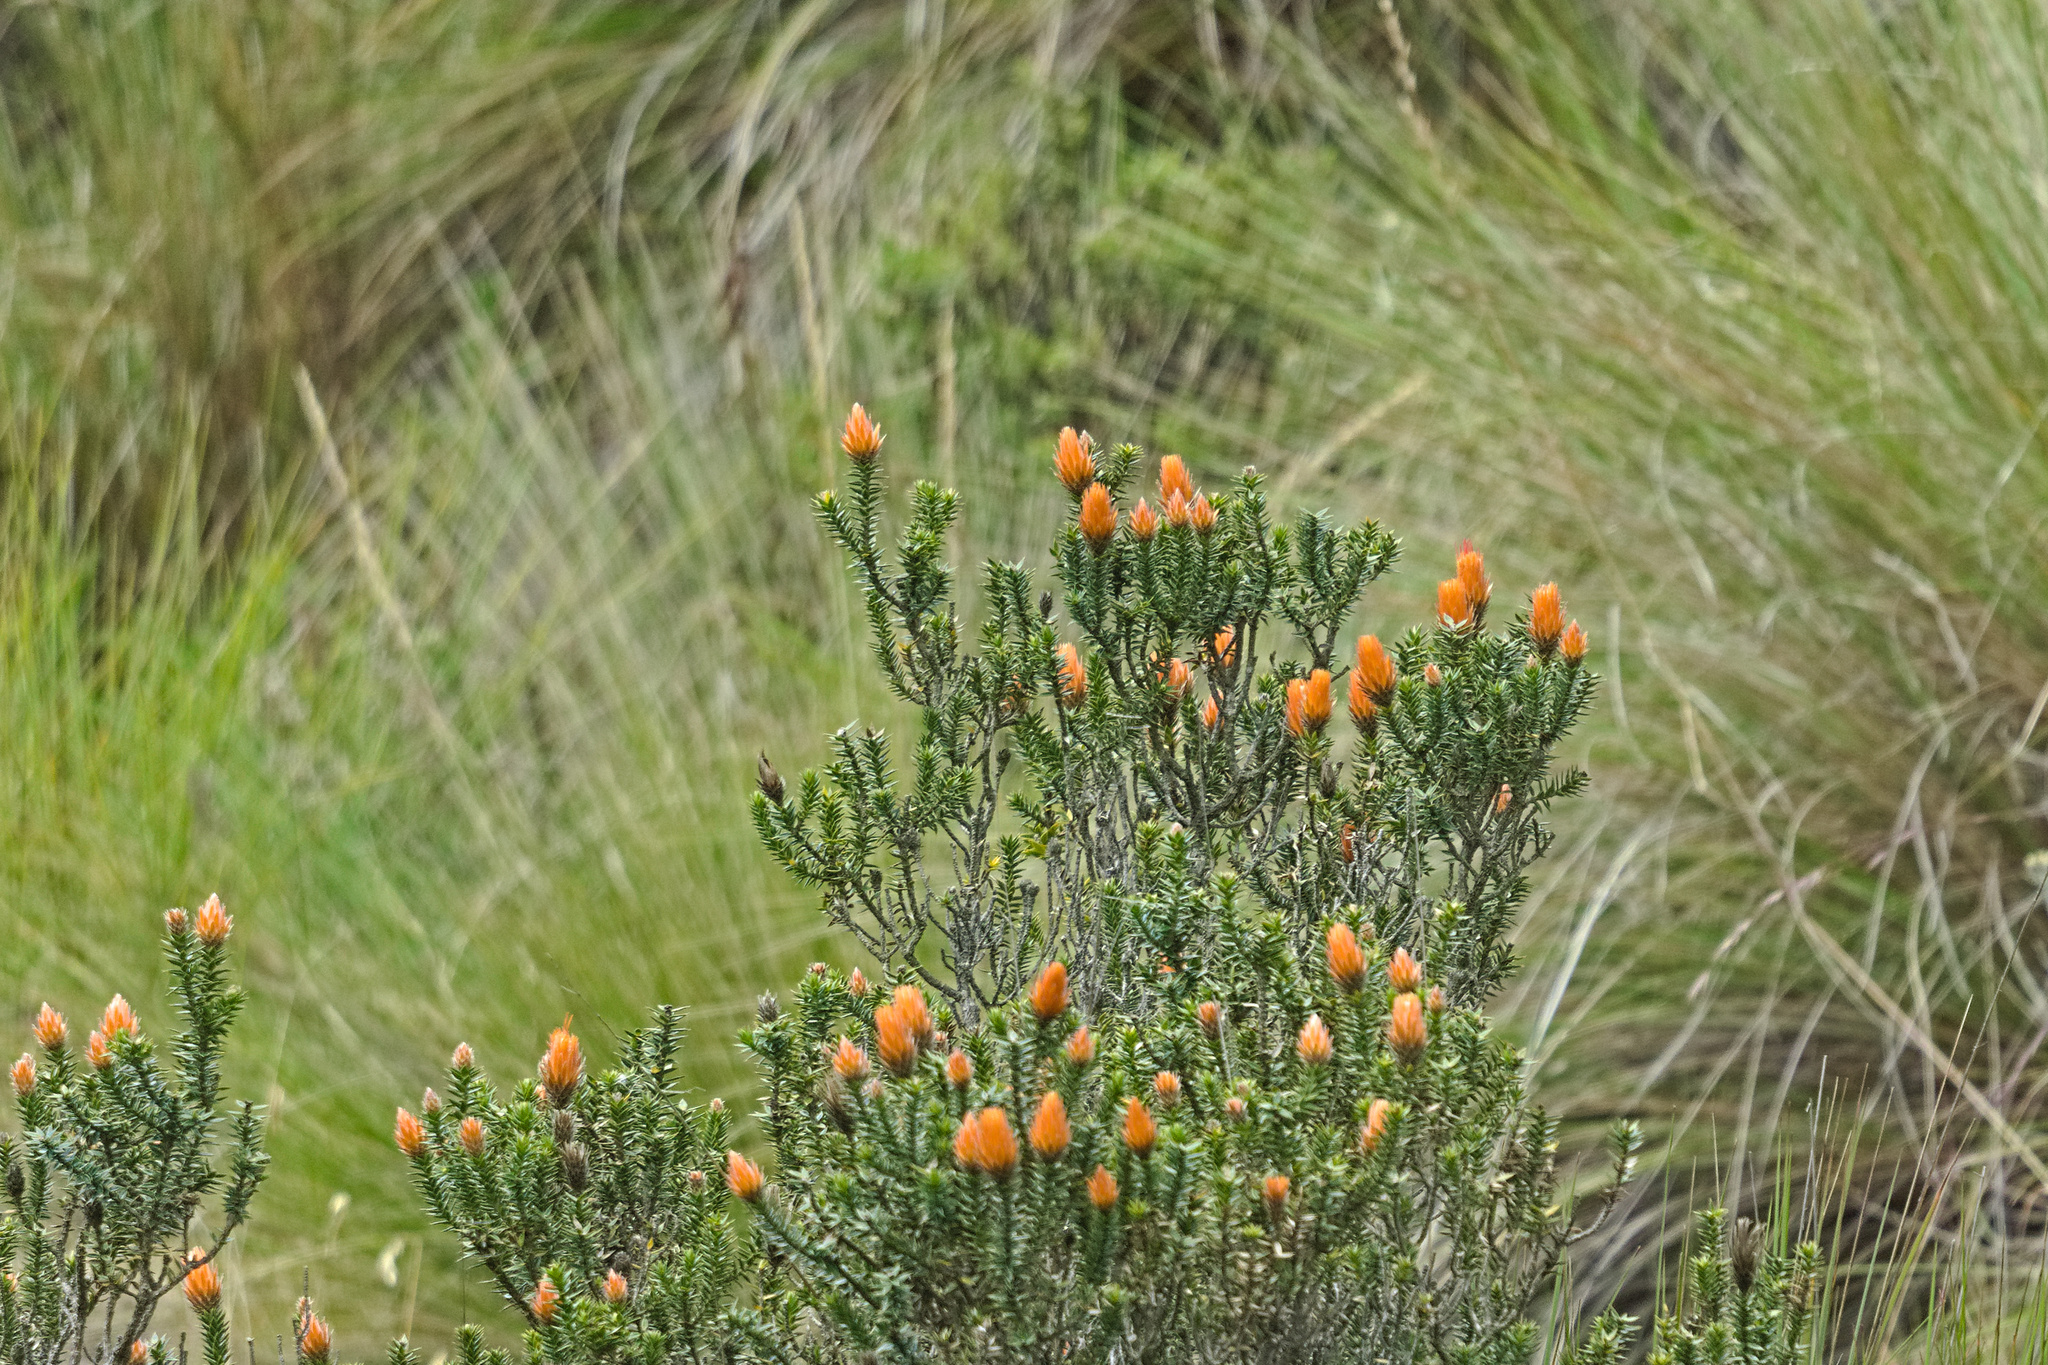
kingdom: Plantae
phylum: Tracheophyta
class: Magnoliopsida
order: Asterales
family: Asteraceae
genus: Chuquiraga
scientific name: Chuquiraga jussieui
